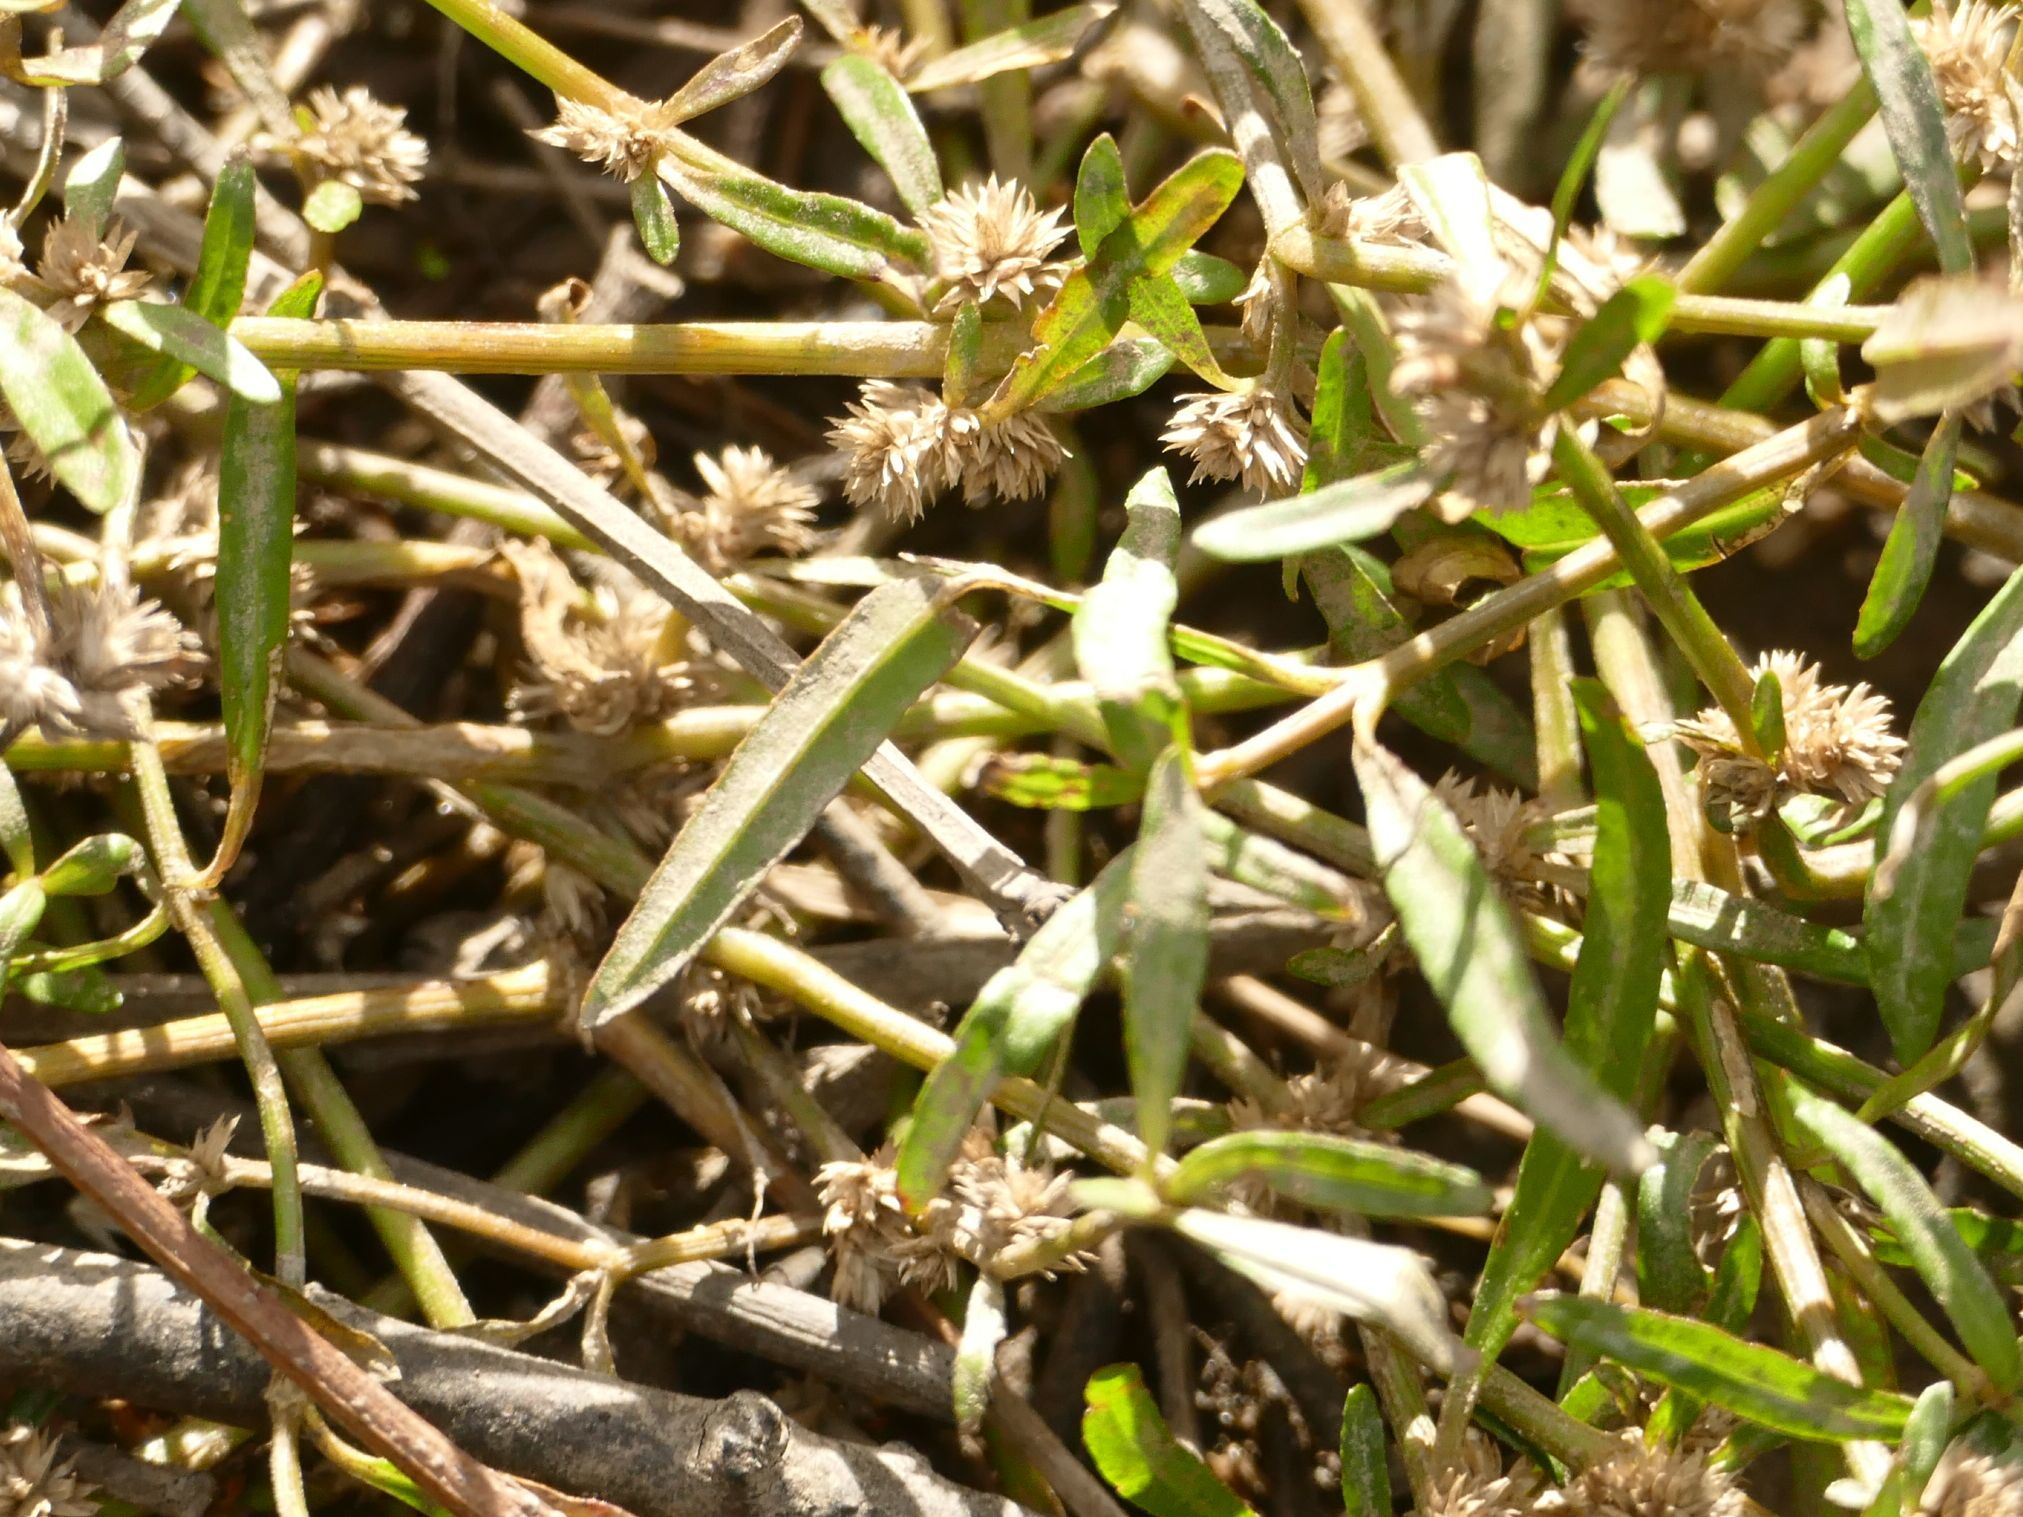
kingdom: Plantae
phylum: Tracheophyta
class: Magnoliopsida
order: Caryophyllales
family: Amaranthaceae
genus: Alternanthera
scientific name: Alternanthera denticulata
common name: Lesser joyweed
